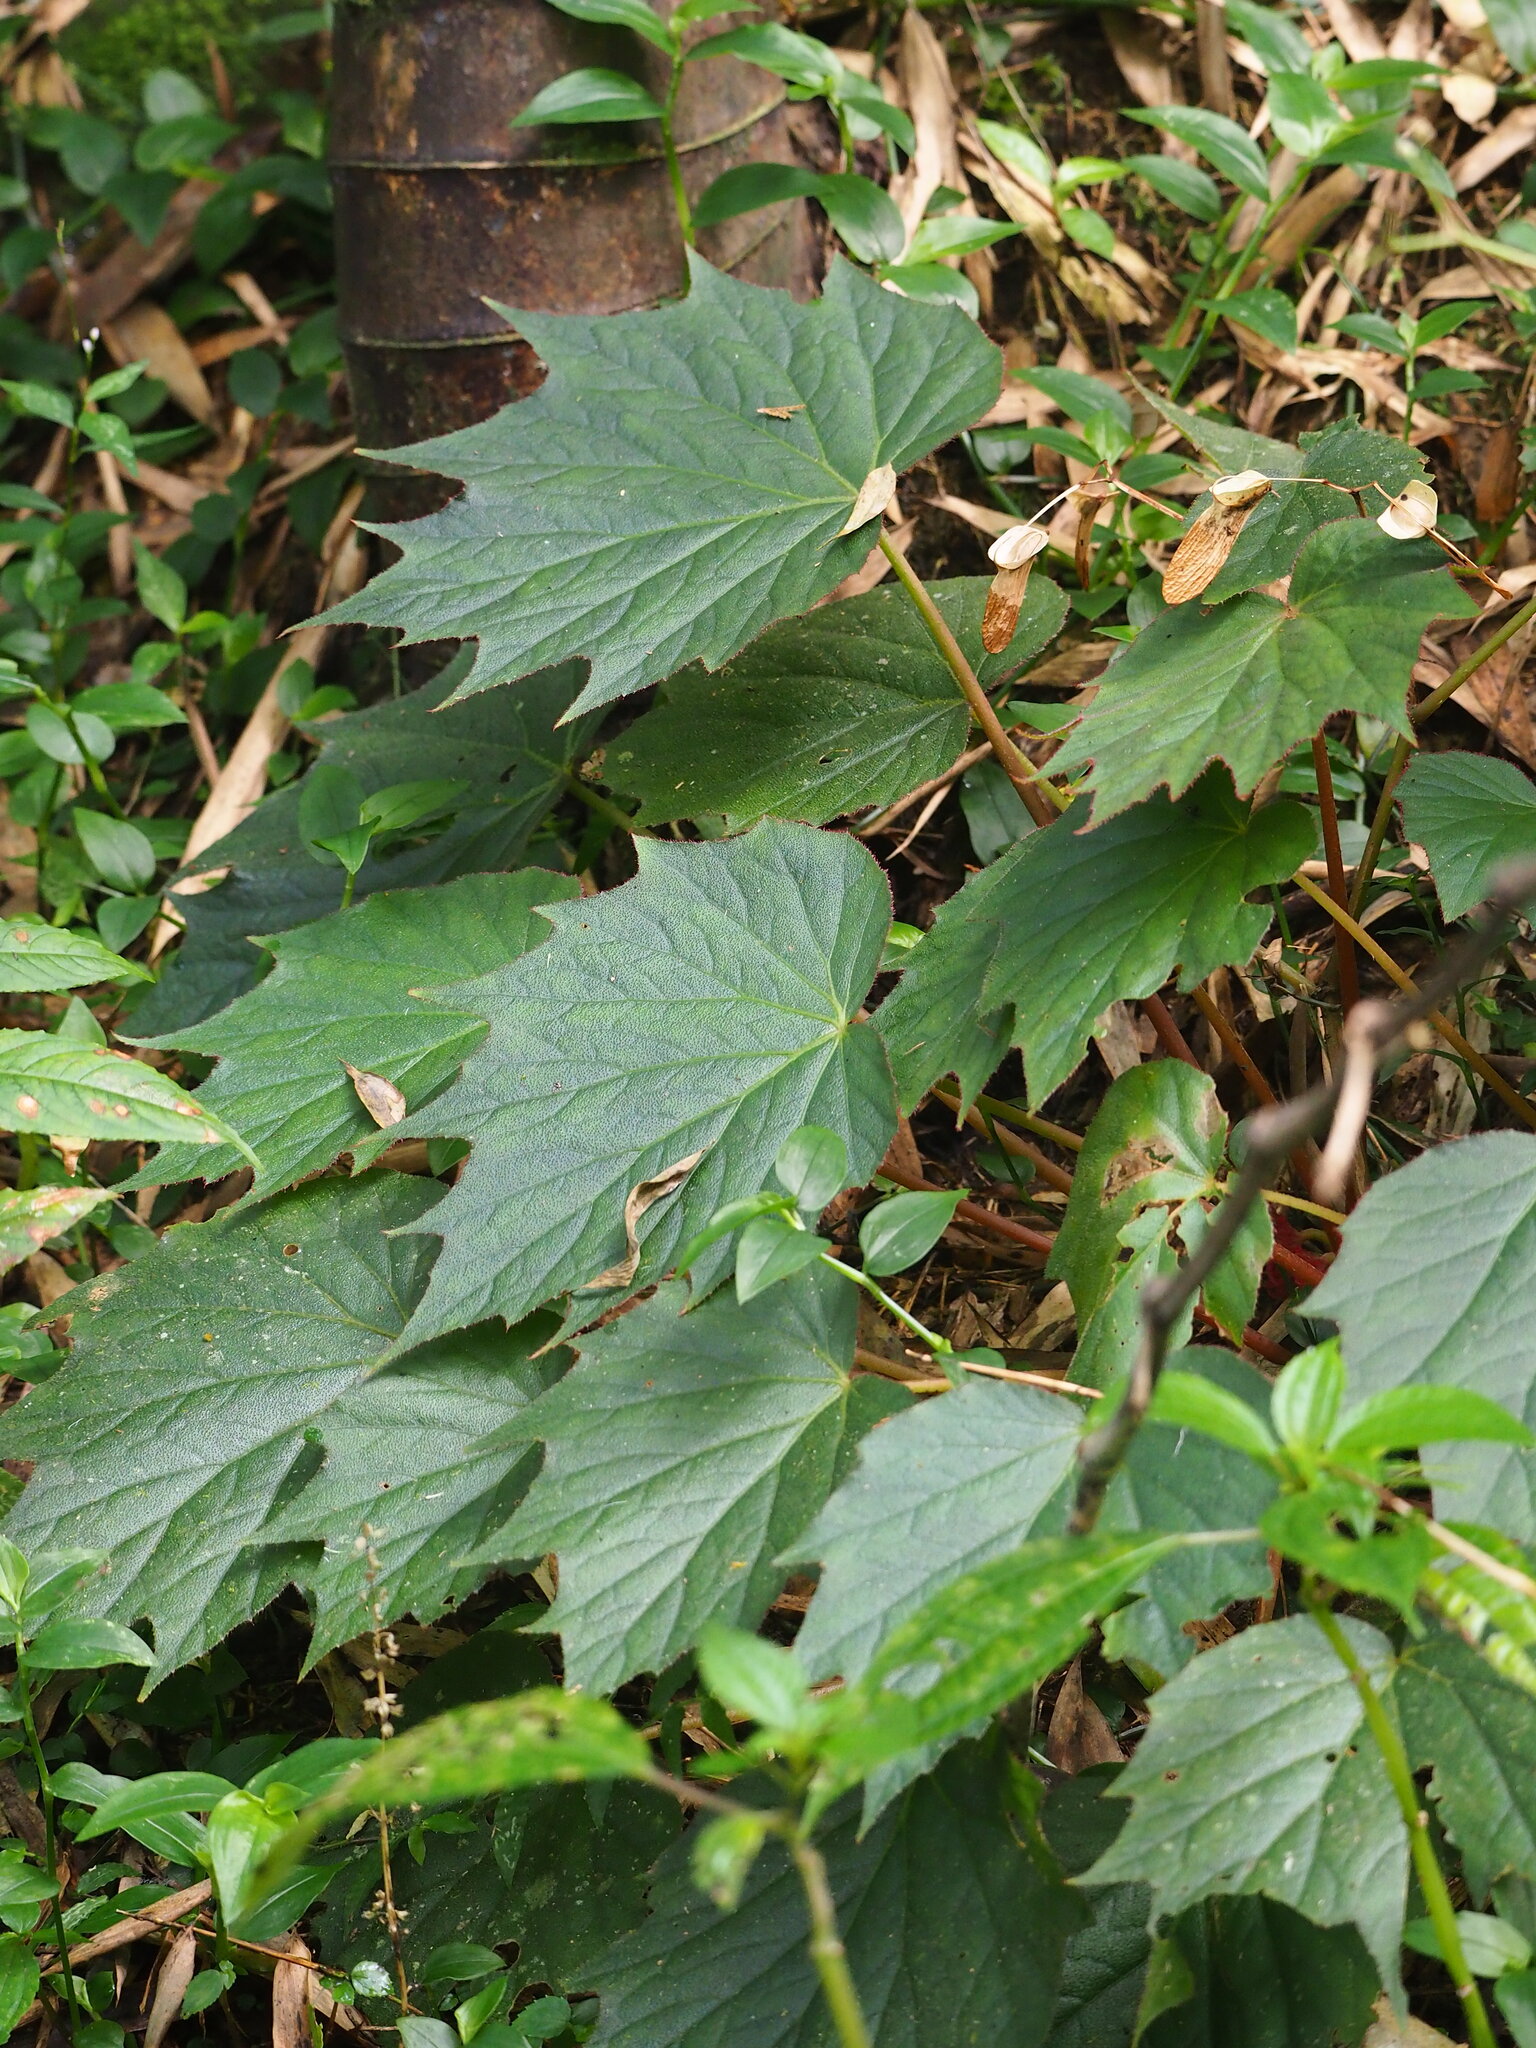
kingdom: Plantae
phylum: Tracheophyta
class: Magnoliopsida
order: Cucurbitales
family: Begoniaceae
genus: Begonia
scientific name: Begonia palmata
